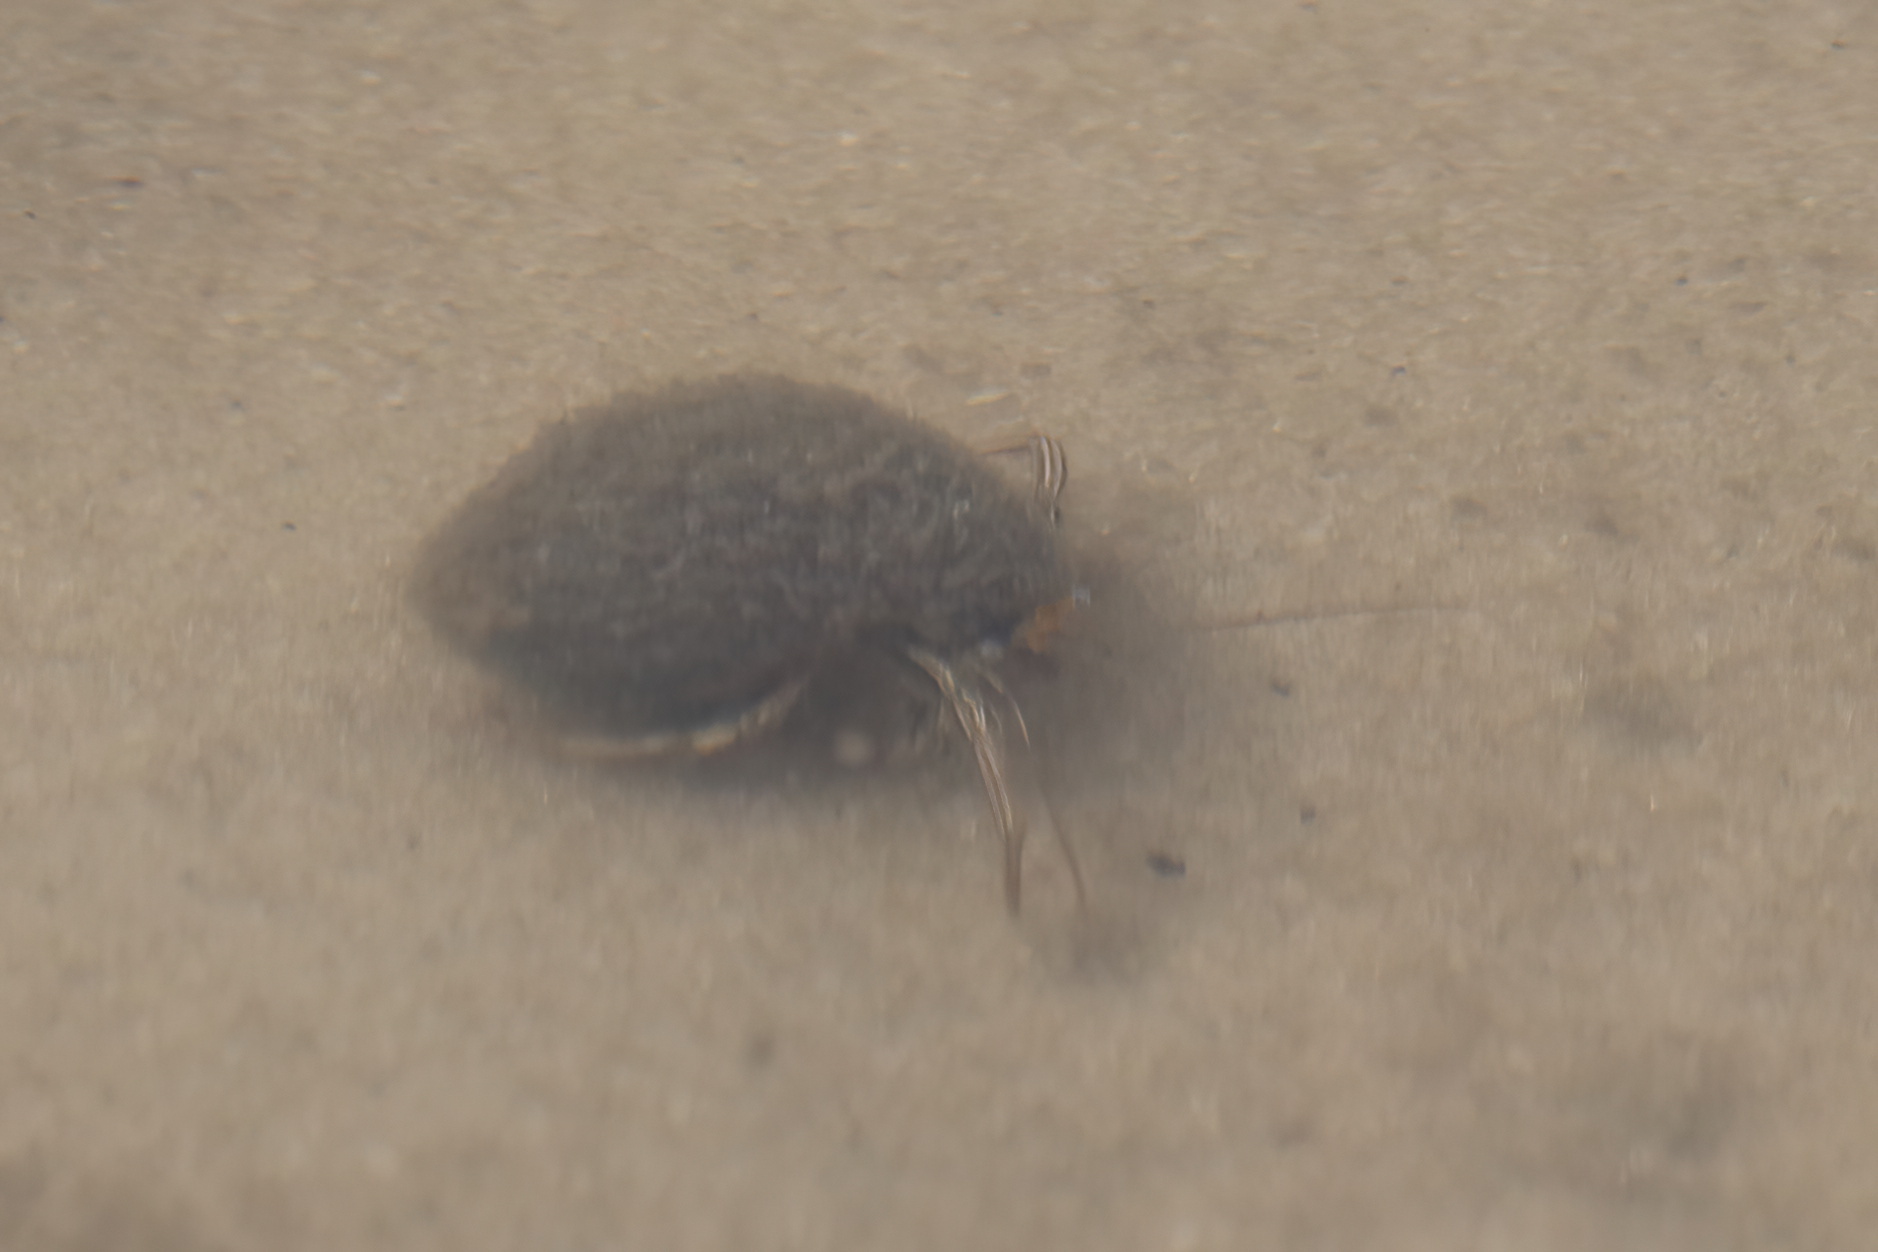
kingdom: Animalia
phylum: Arthropoda
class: Malacostraca
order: Decapoda
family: Diogenidae
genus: Clibanarius
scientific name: Clibanarius vittatus
